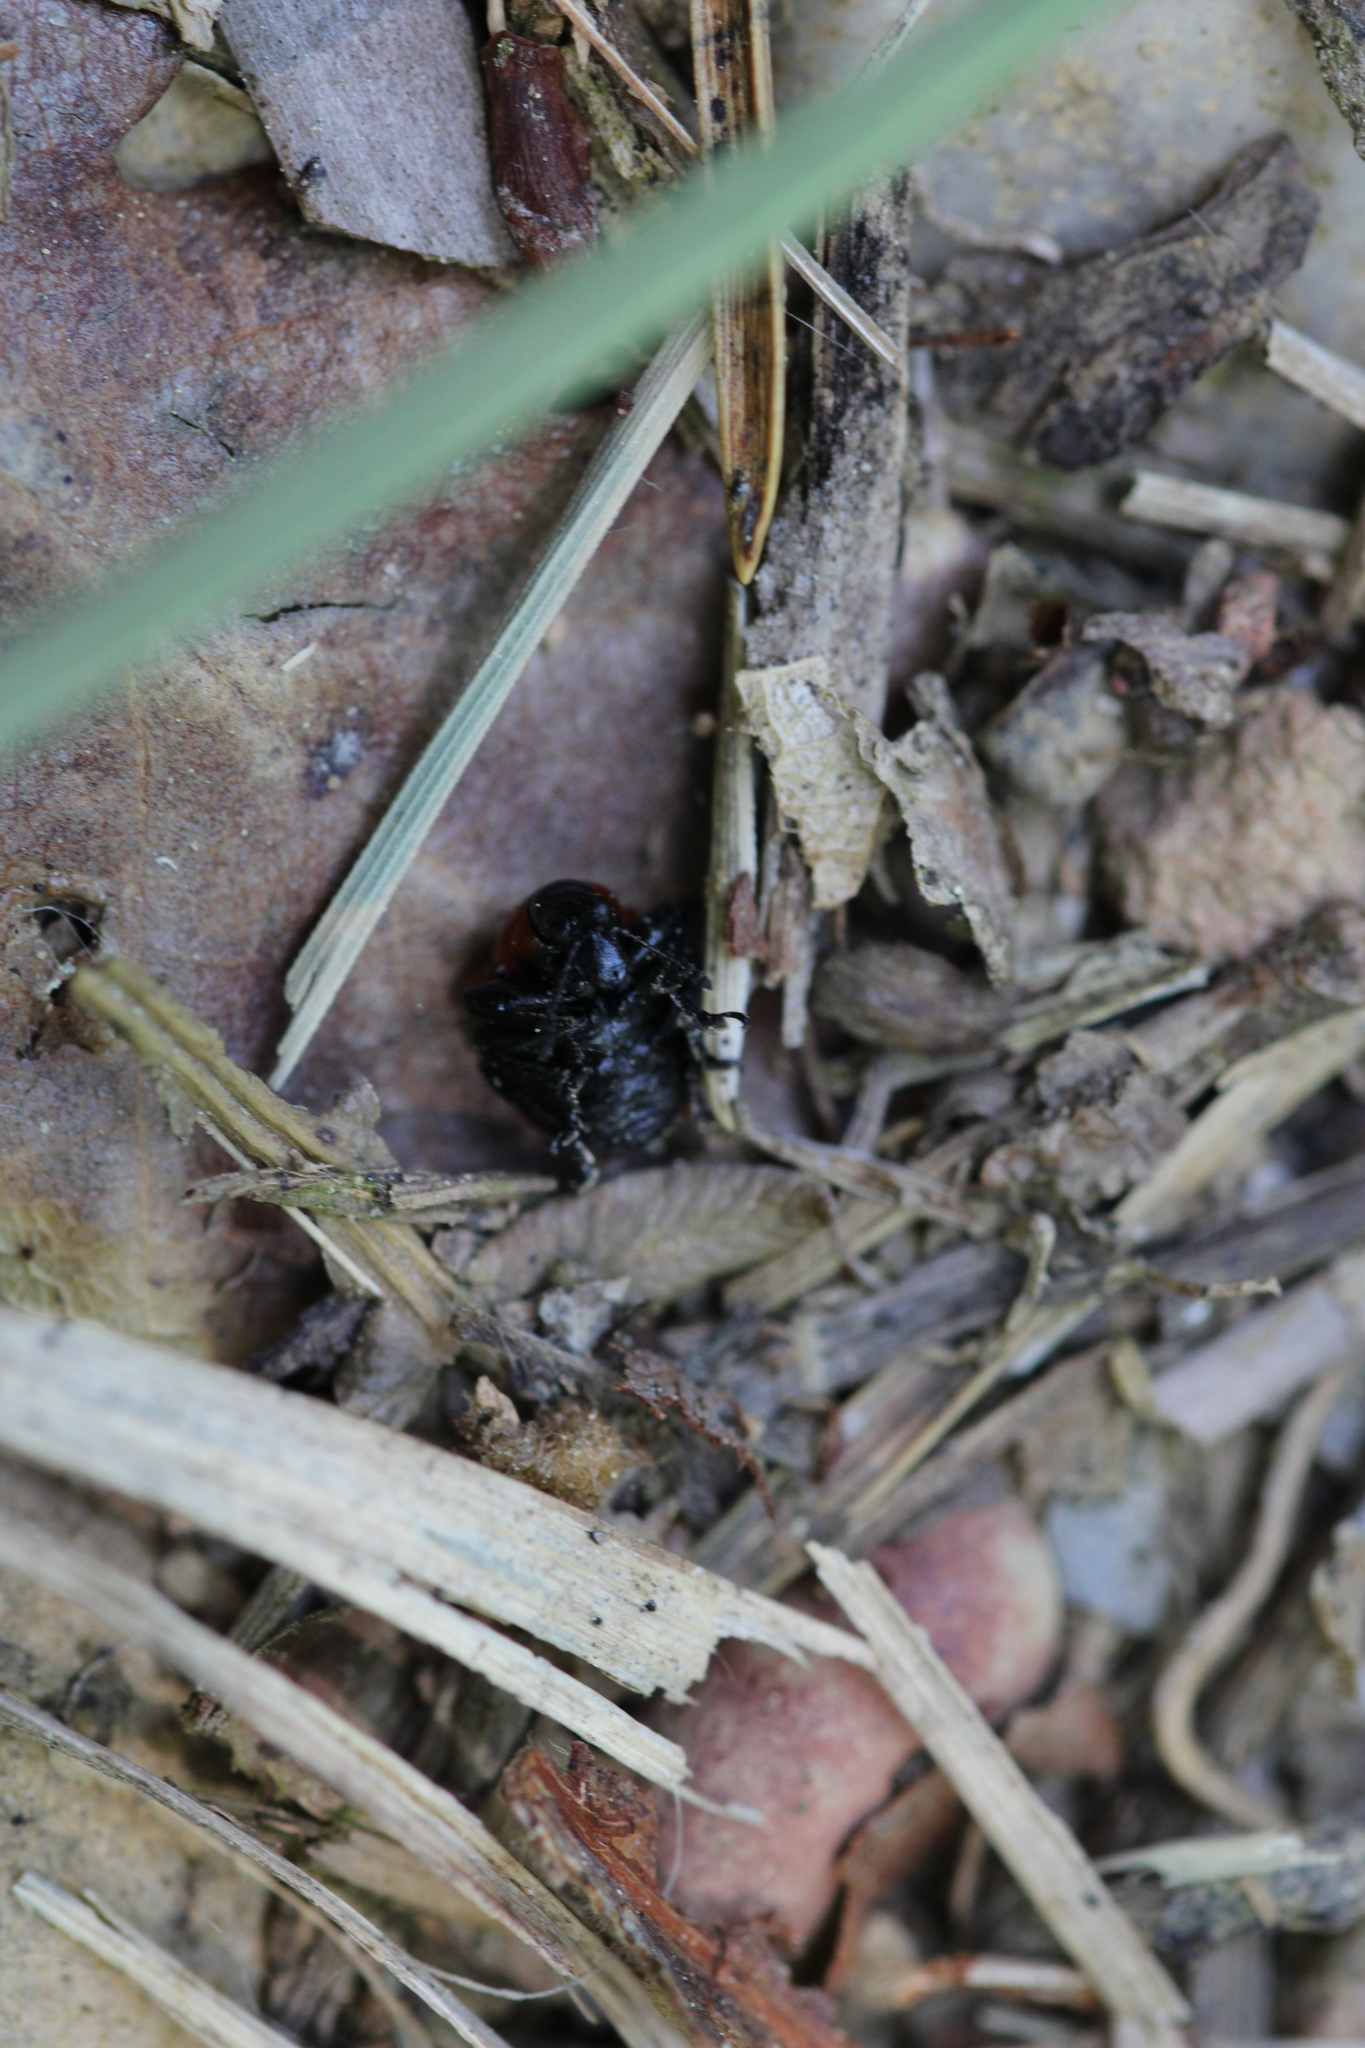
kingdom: Animalia
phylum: Arthropoda
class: Insecta
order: Coleoptera
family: Attelabidae
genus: Attelabus
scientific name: Attelabus nitens
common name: Oak leaf-roller
